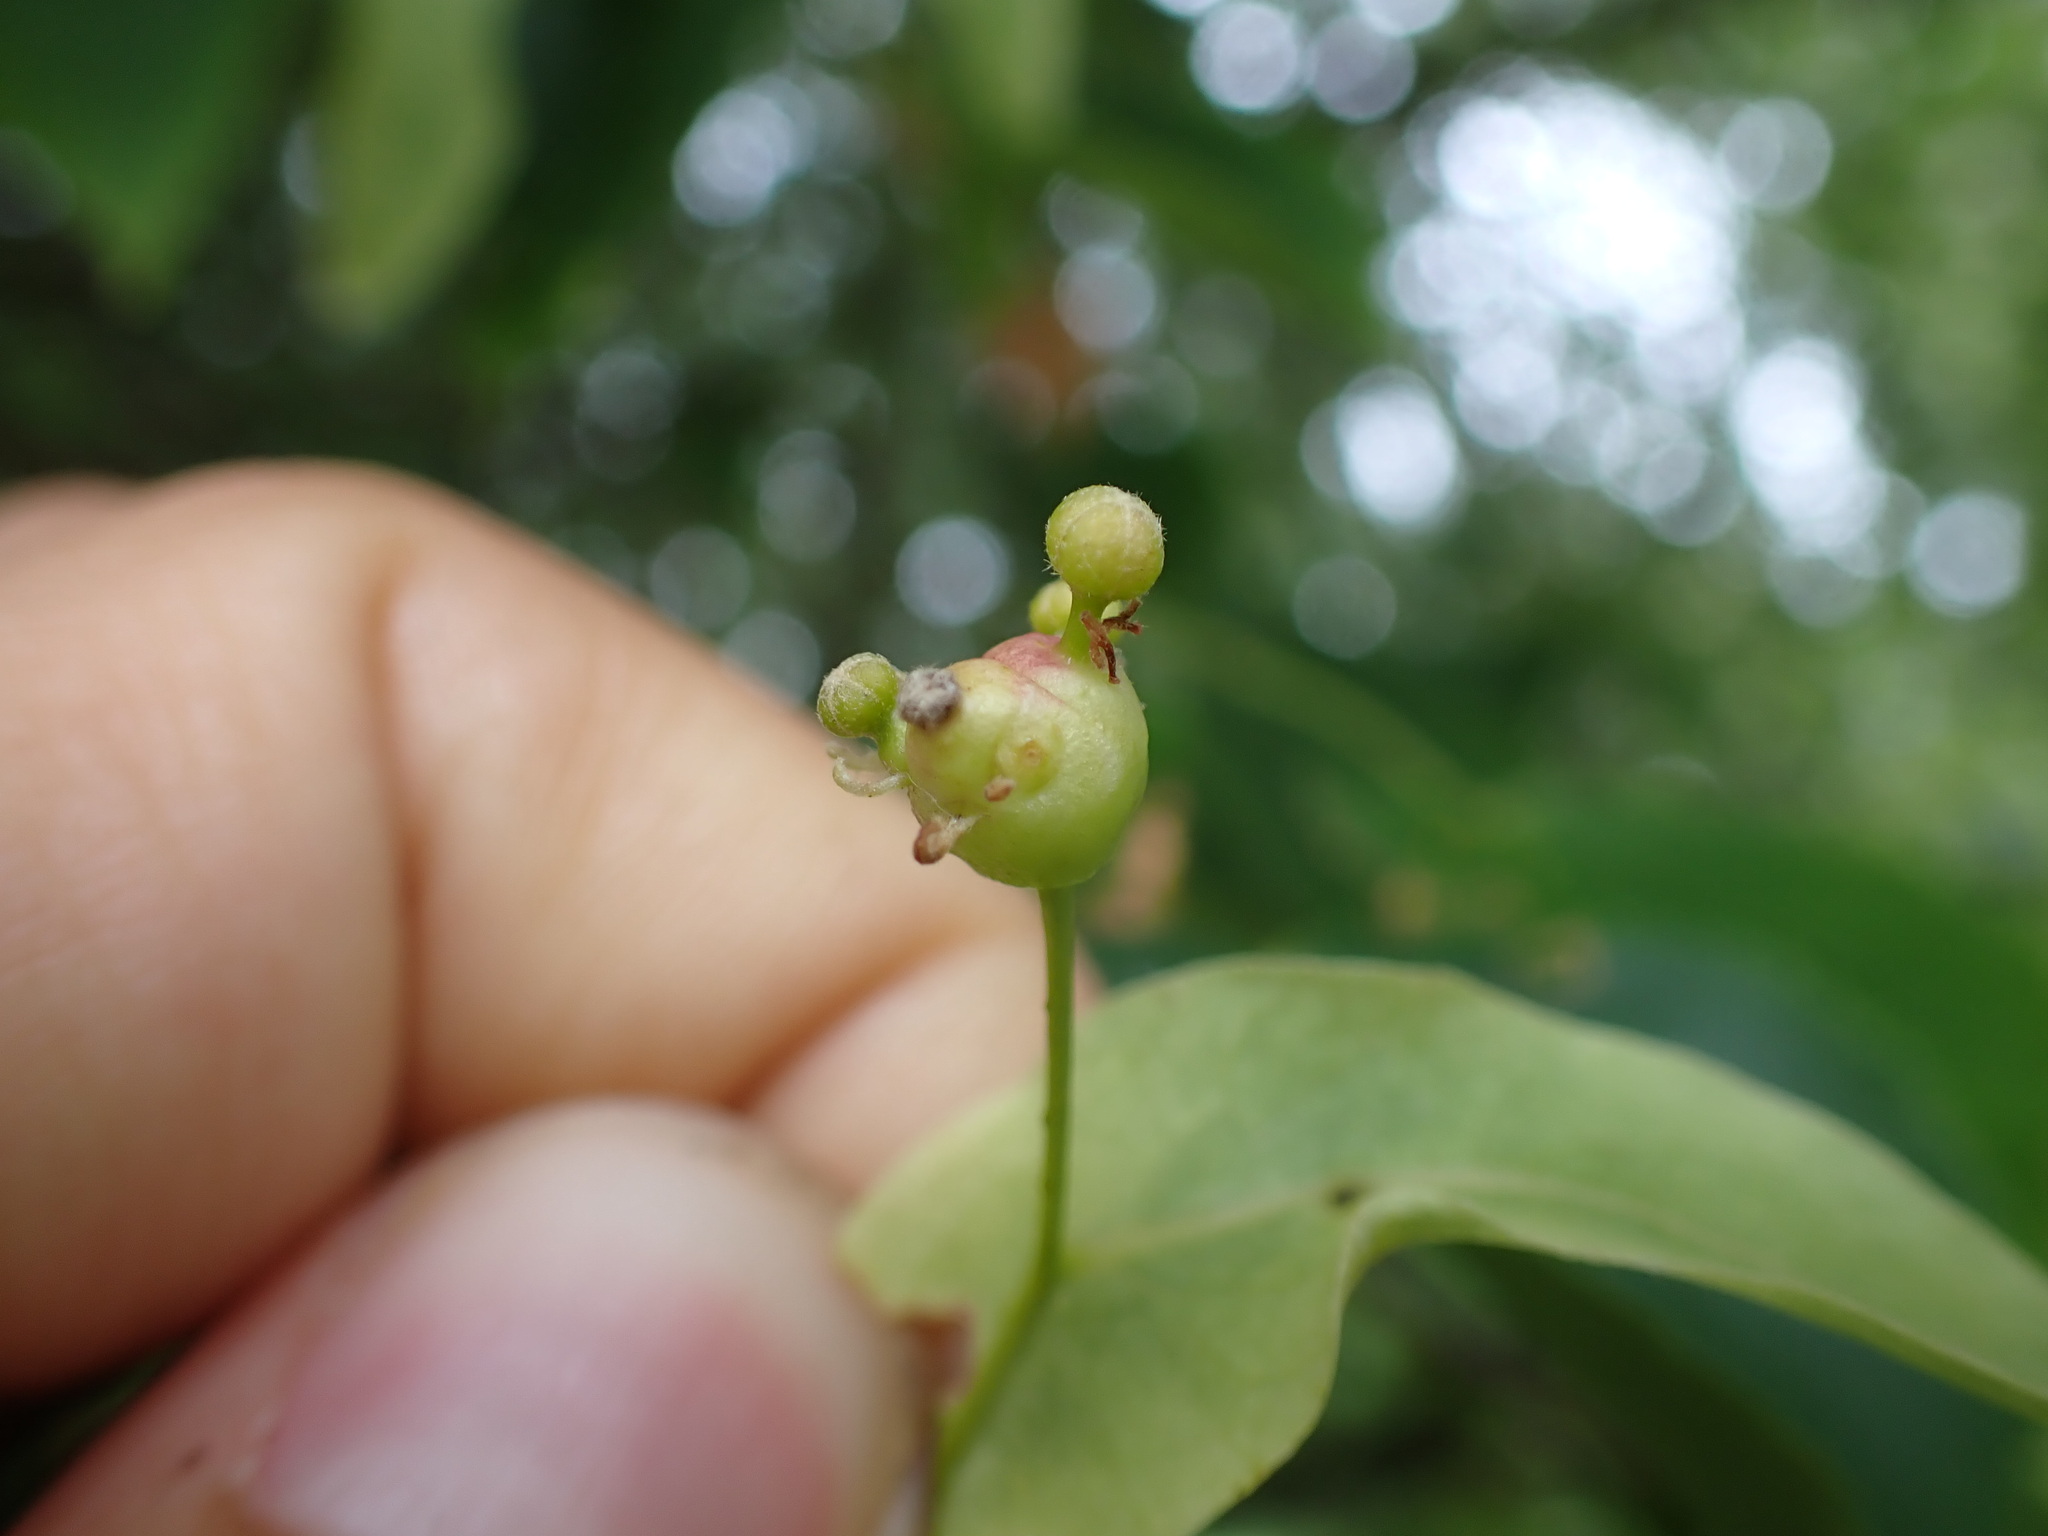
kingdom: Animalia
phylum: Arthropoda
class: Insecta
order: Diptera
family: Cecidomyiidae
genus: Contarinia
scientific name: Contarinia tiliarum
